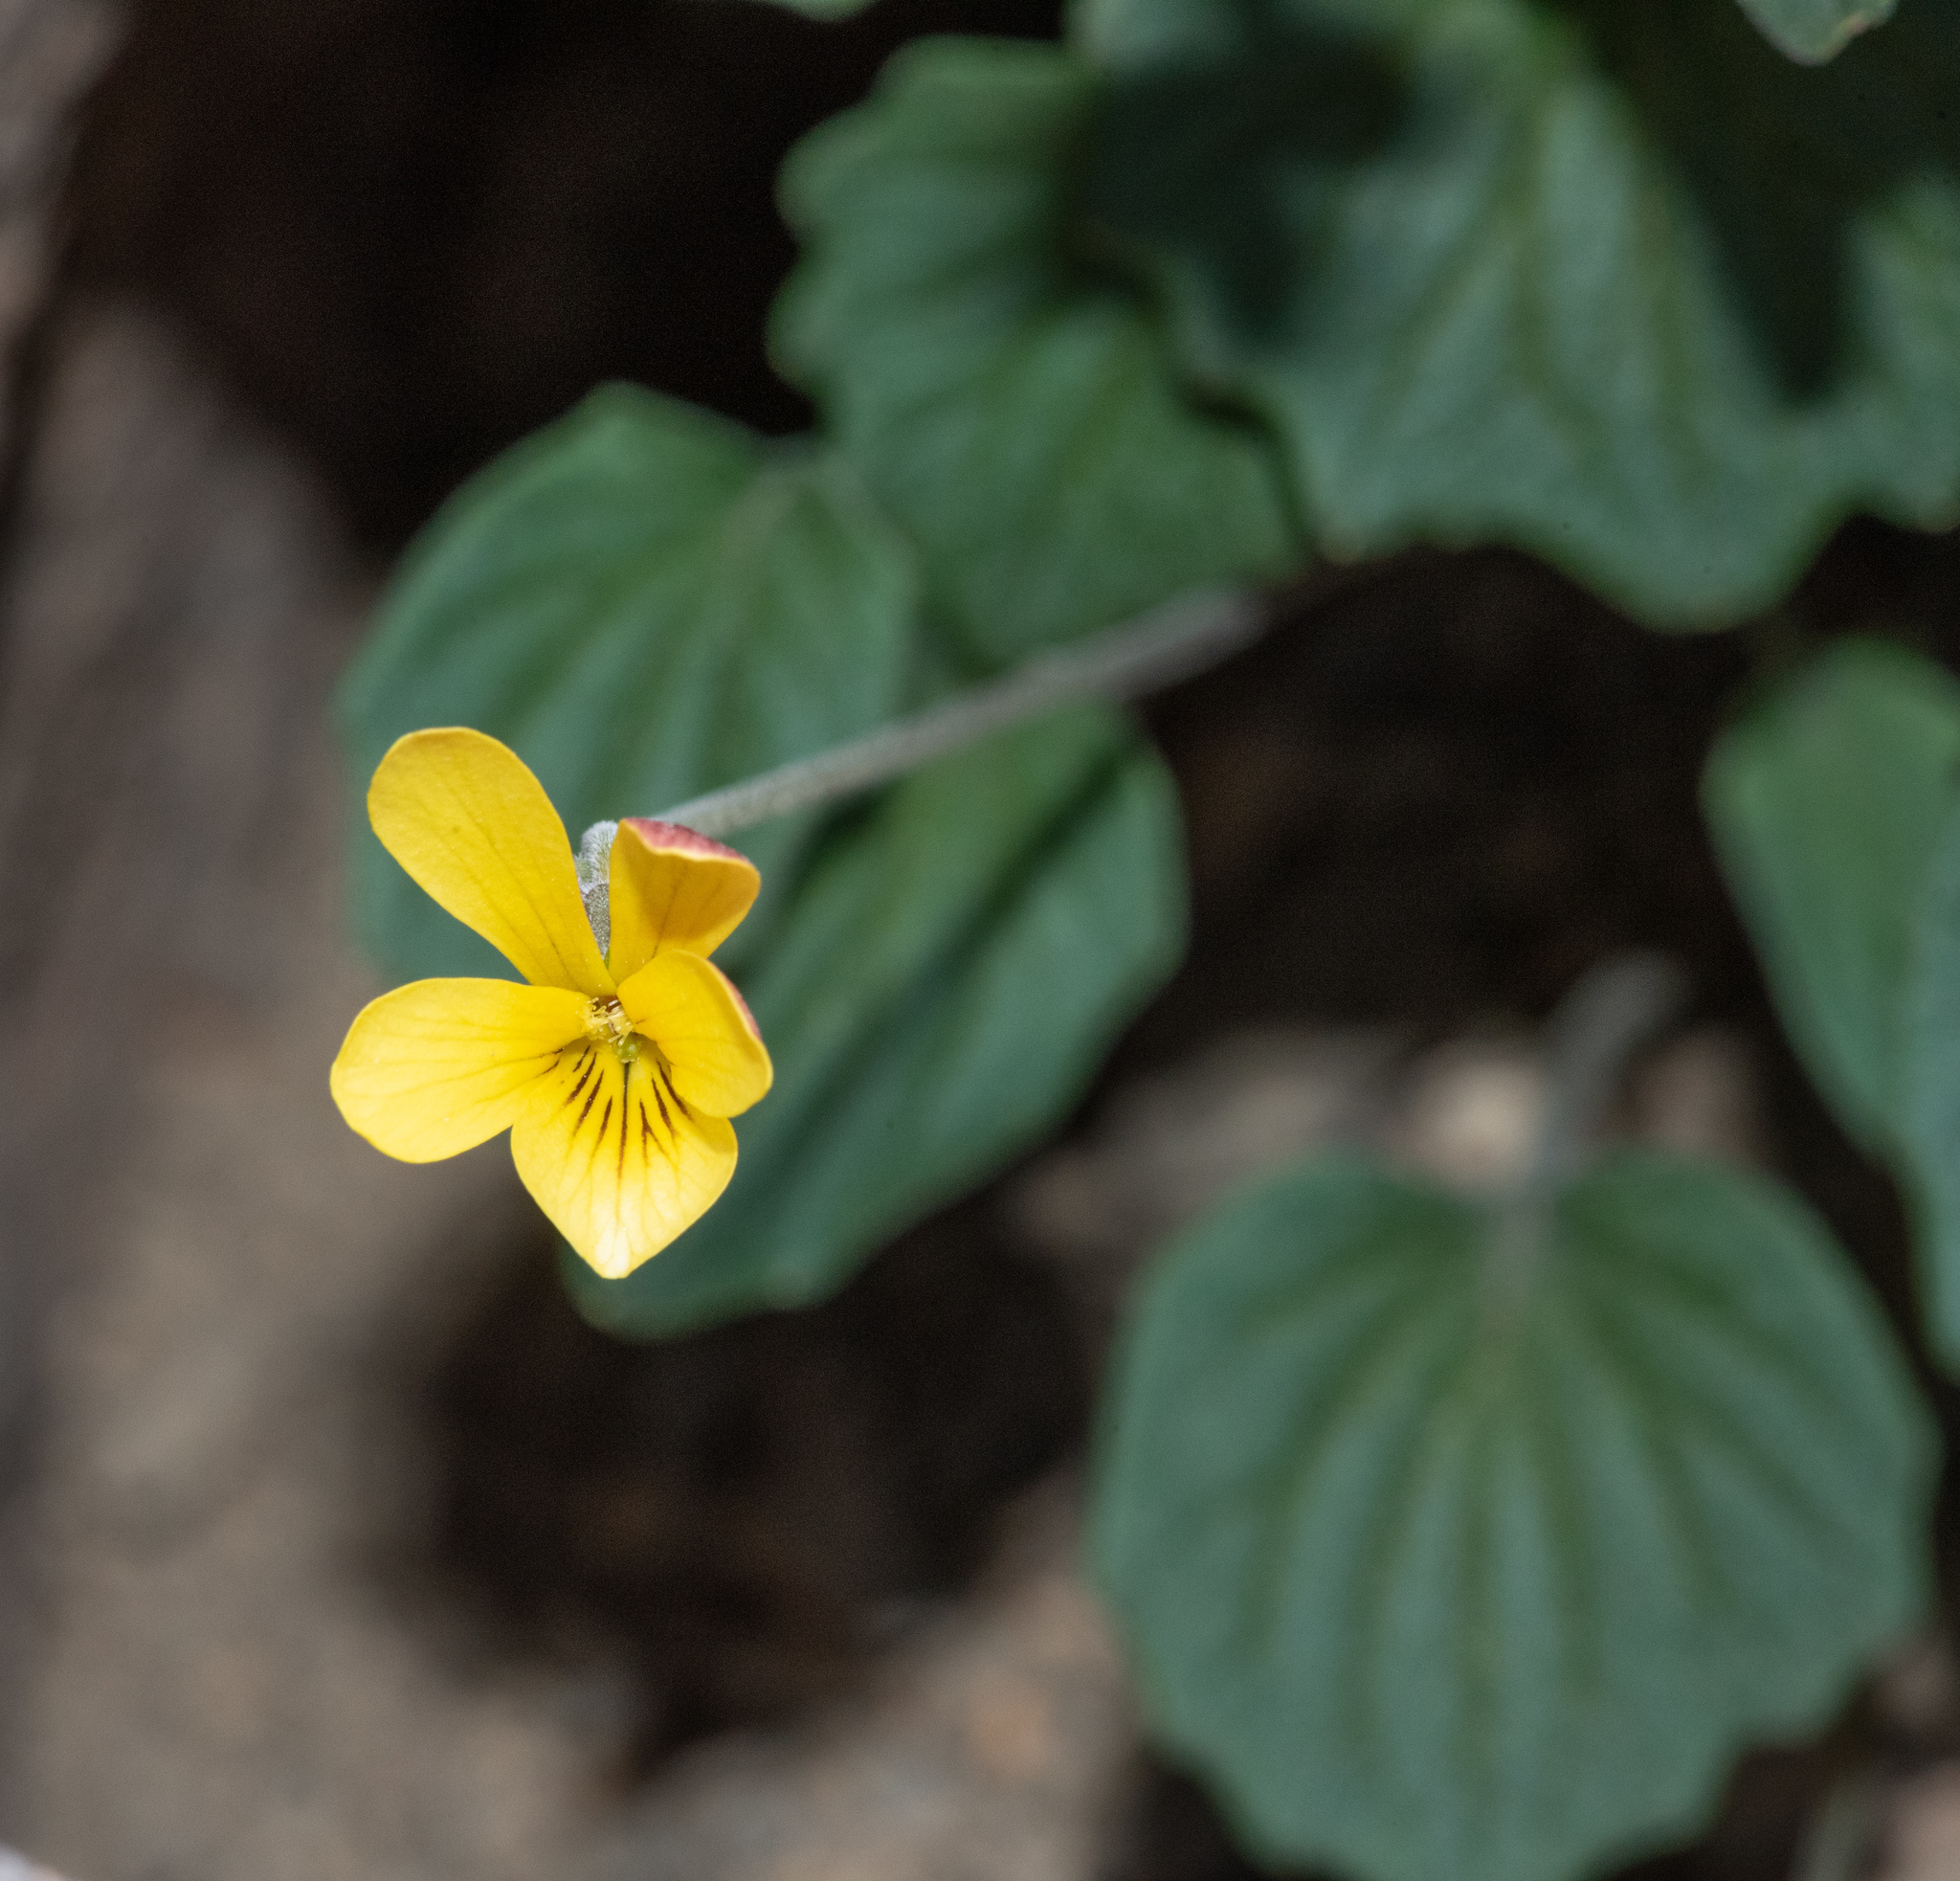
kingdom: Plantae
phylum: Tracheophyta
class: Magnoliopsida
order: Malpighiales
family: Violaceae
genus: Viola
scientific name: Viola purpurea
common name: Pine violet
